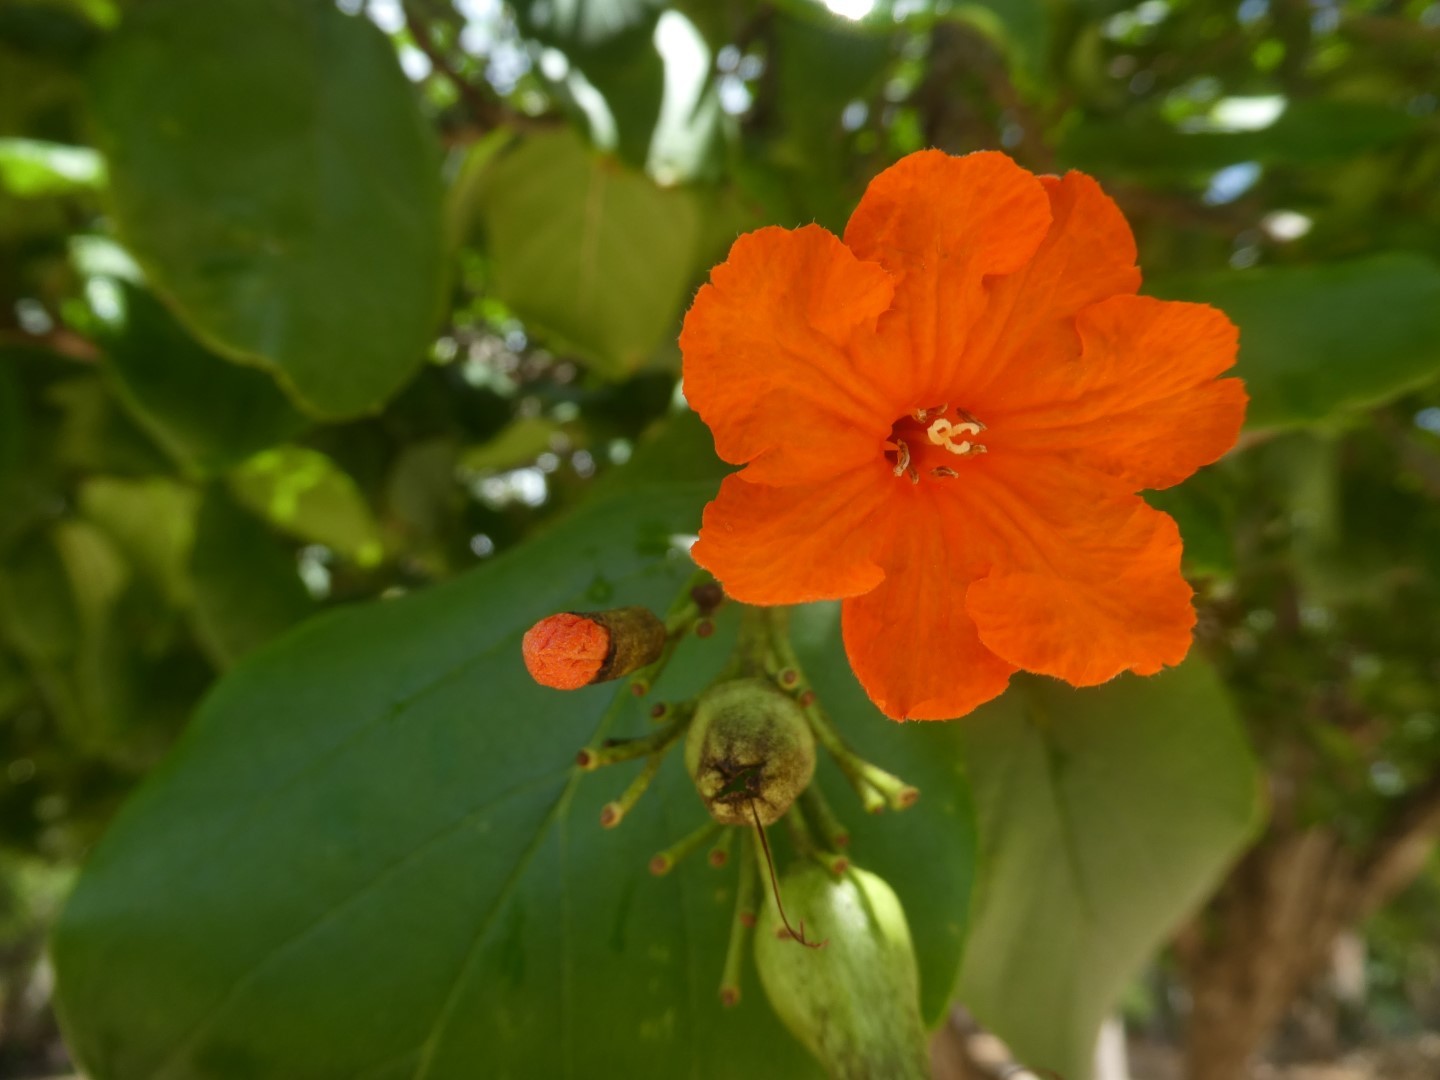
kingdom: Plantae
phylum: Tracheophyta
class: Magnoliopsida
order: Boraginales
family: Cordiaceae
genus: Cordia
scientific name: Cordia sebestena
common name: Largeleaf geigertree
